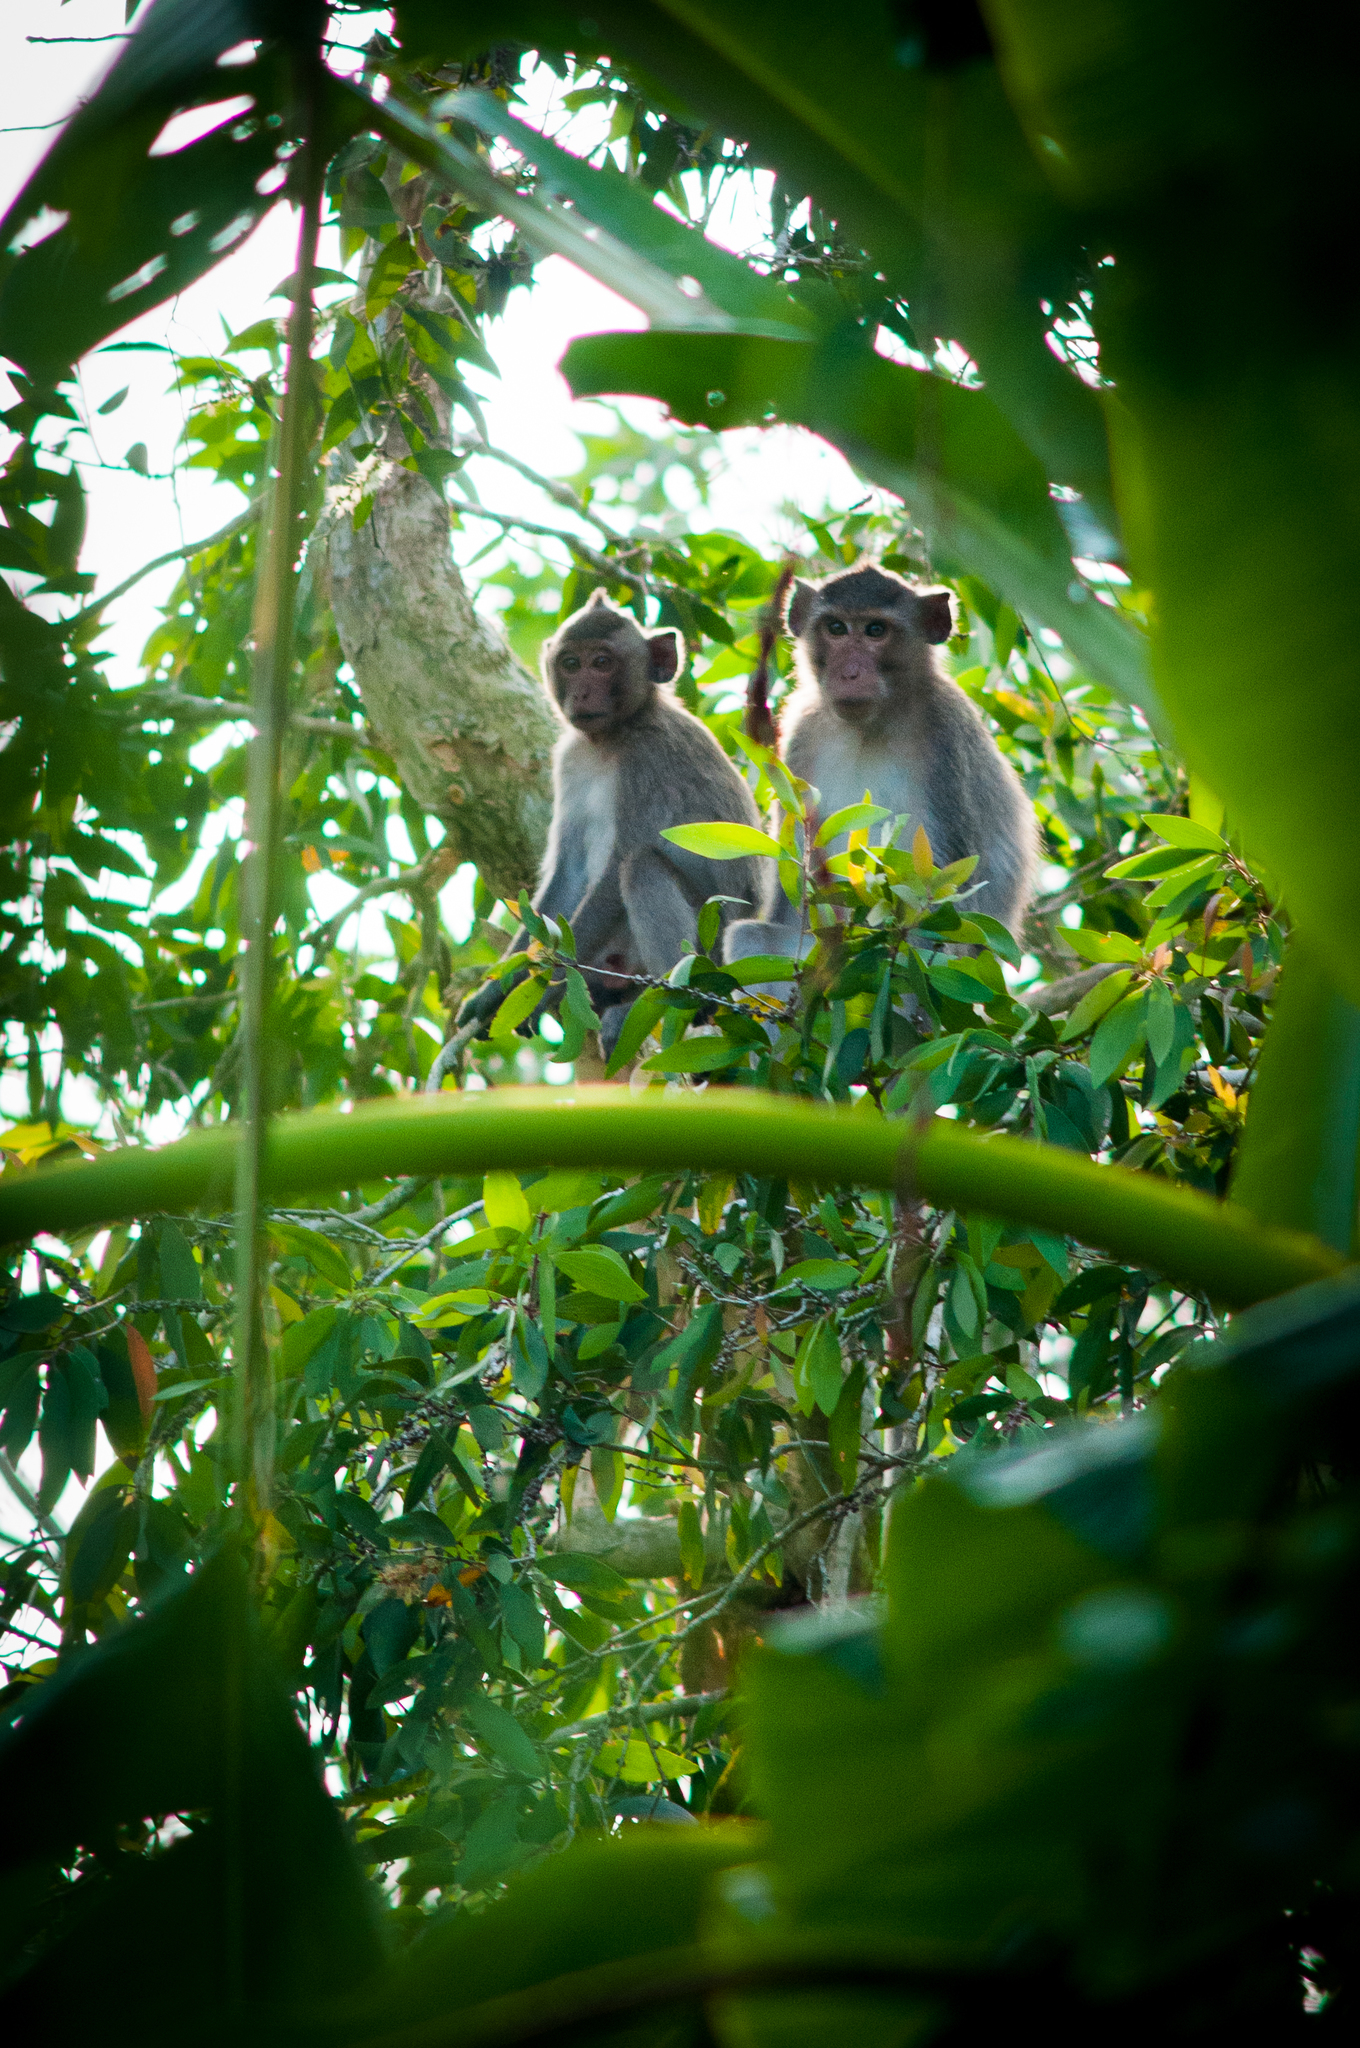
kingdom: Animalia
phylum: Chordata
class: Mammalia
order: Primates
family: Cercopithecidae
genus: Macaca
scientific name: Macaca fascicularis
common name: Crab-eating macaque
